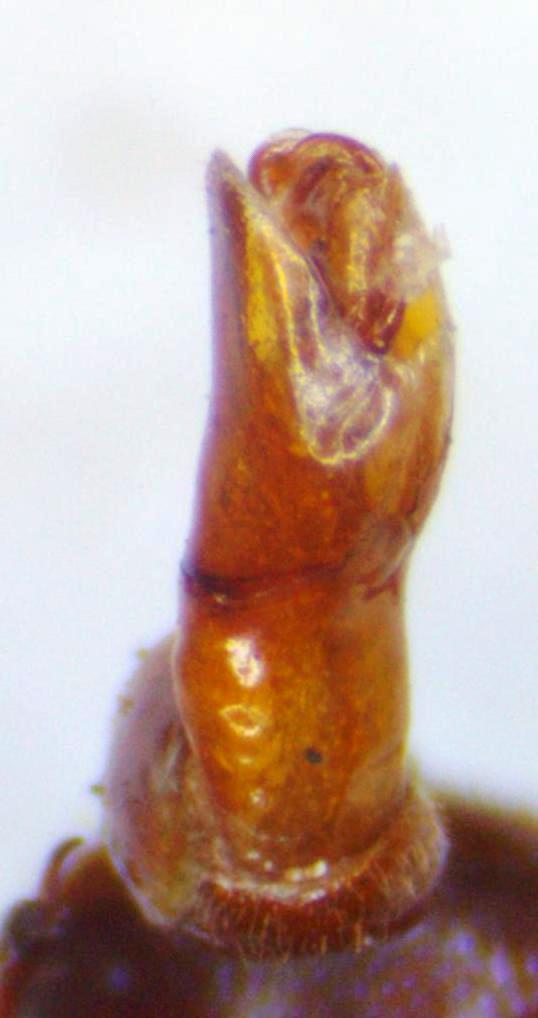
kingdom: Animalia
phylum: Arthropoda
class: Insecta
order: Coleoptera
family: Lucanidae
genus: Platyceroides
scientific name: Platyceroides keeni
